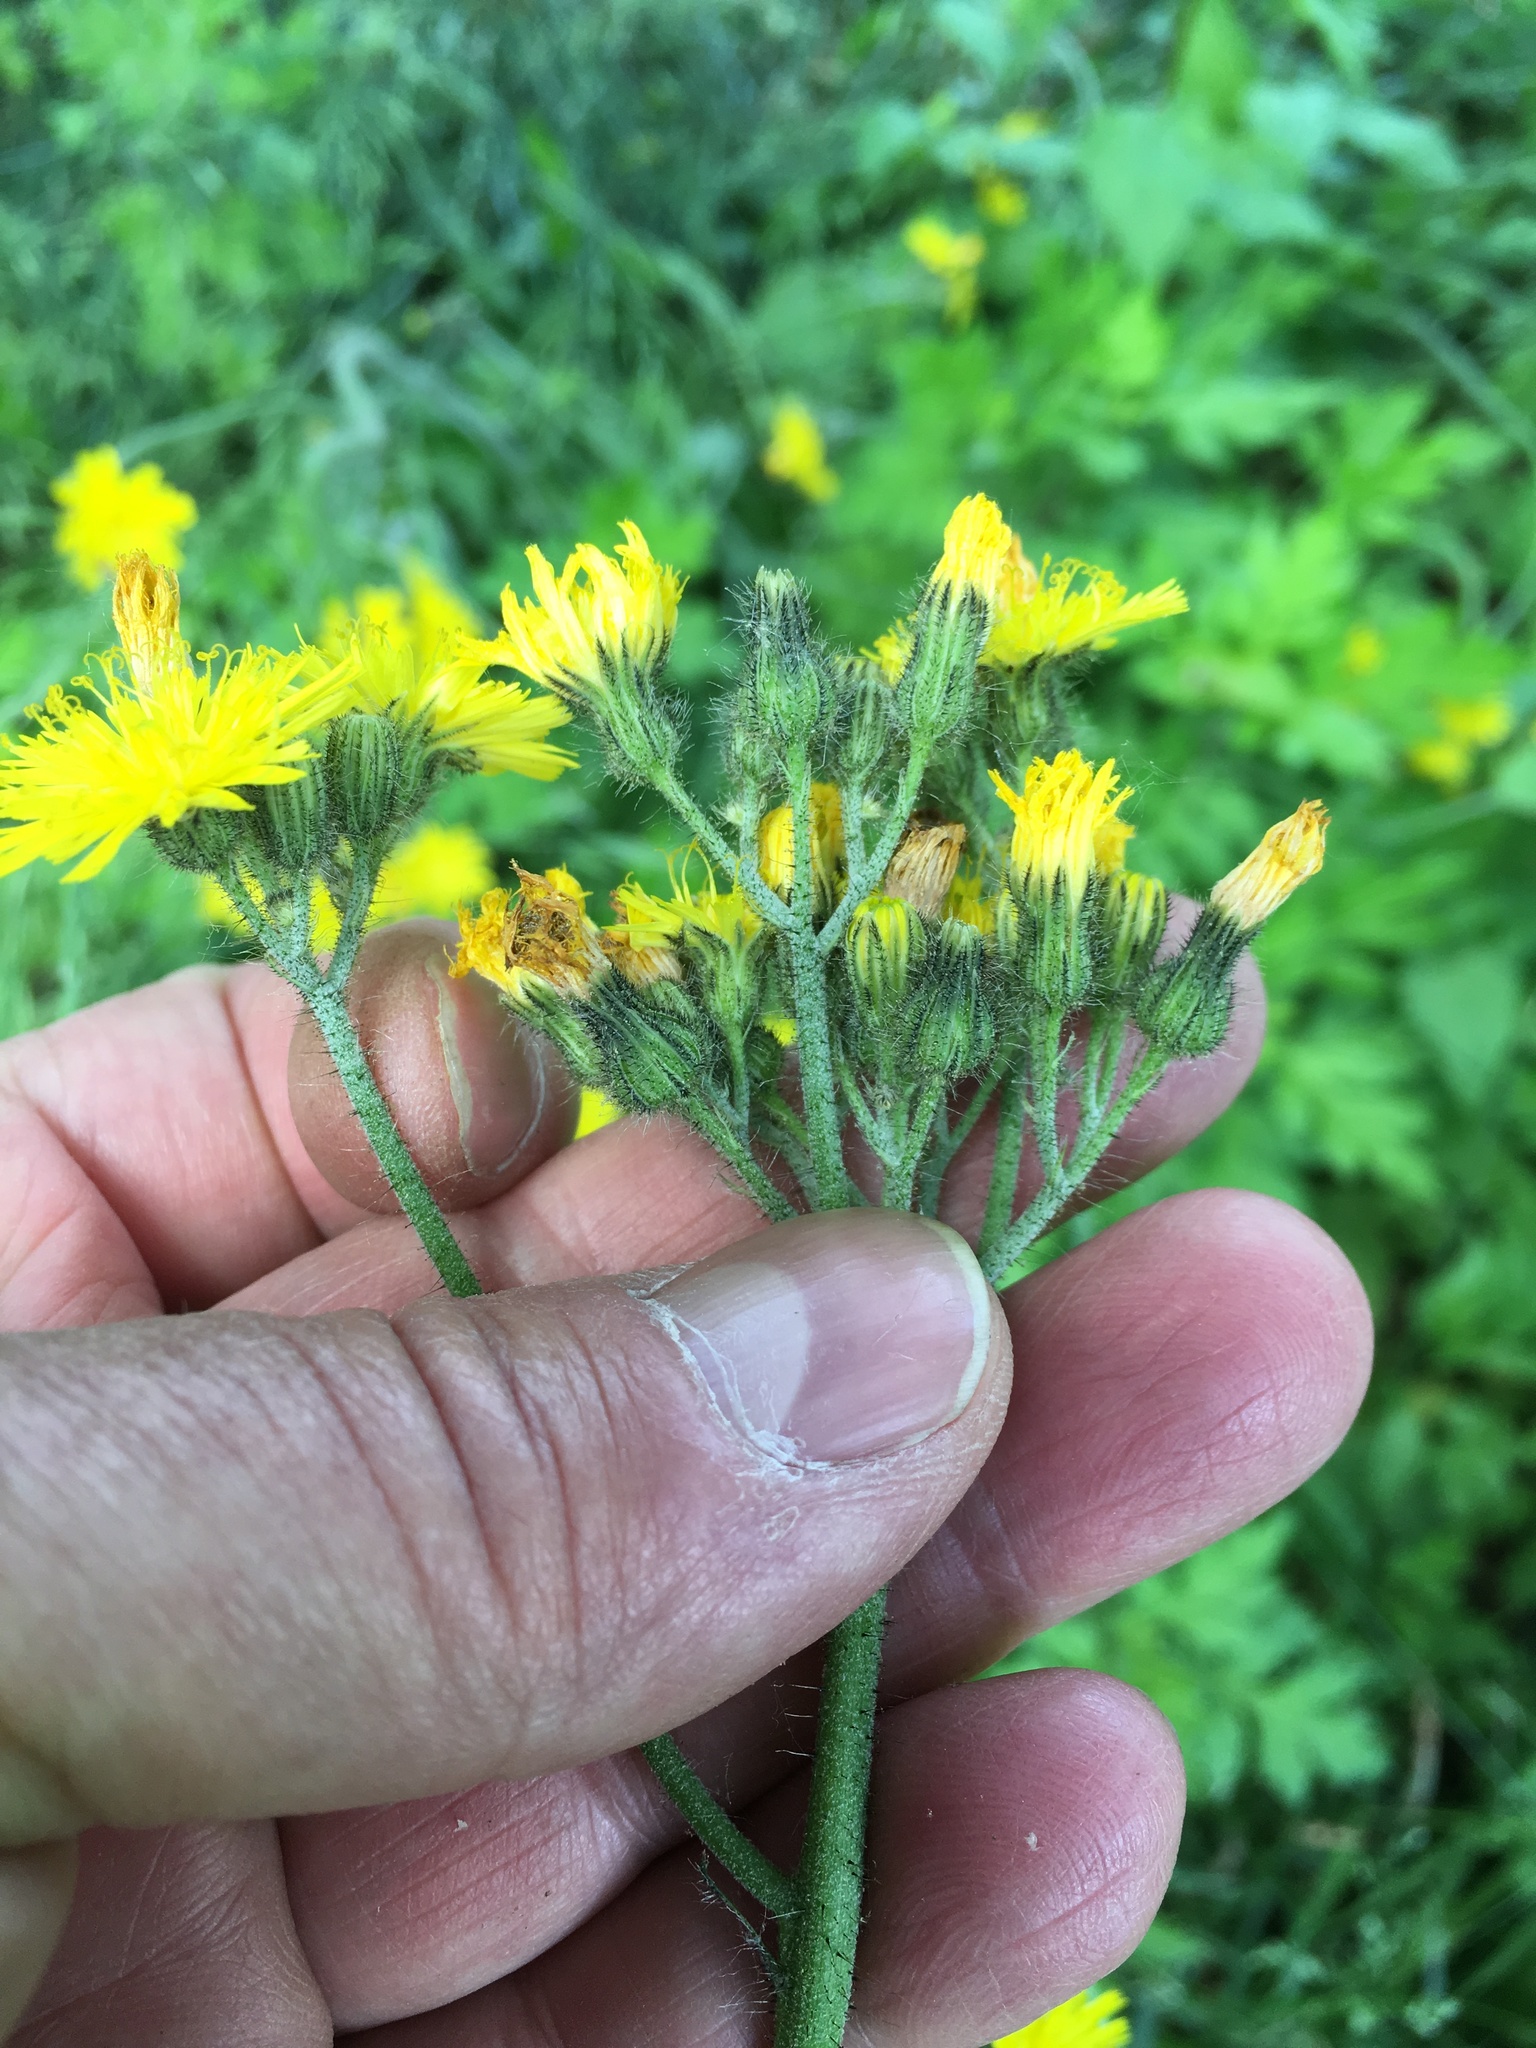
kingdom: Plantae
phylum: Tracheophyta
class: Magnoliopsida
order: Asterales
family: Asteraceae
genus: Pilosella
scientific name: Pilosella caespitosa
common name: Yellow fox-and-cubs
